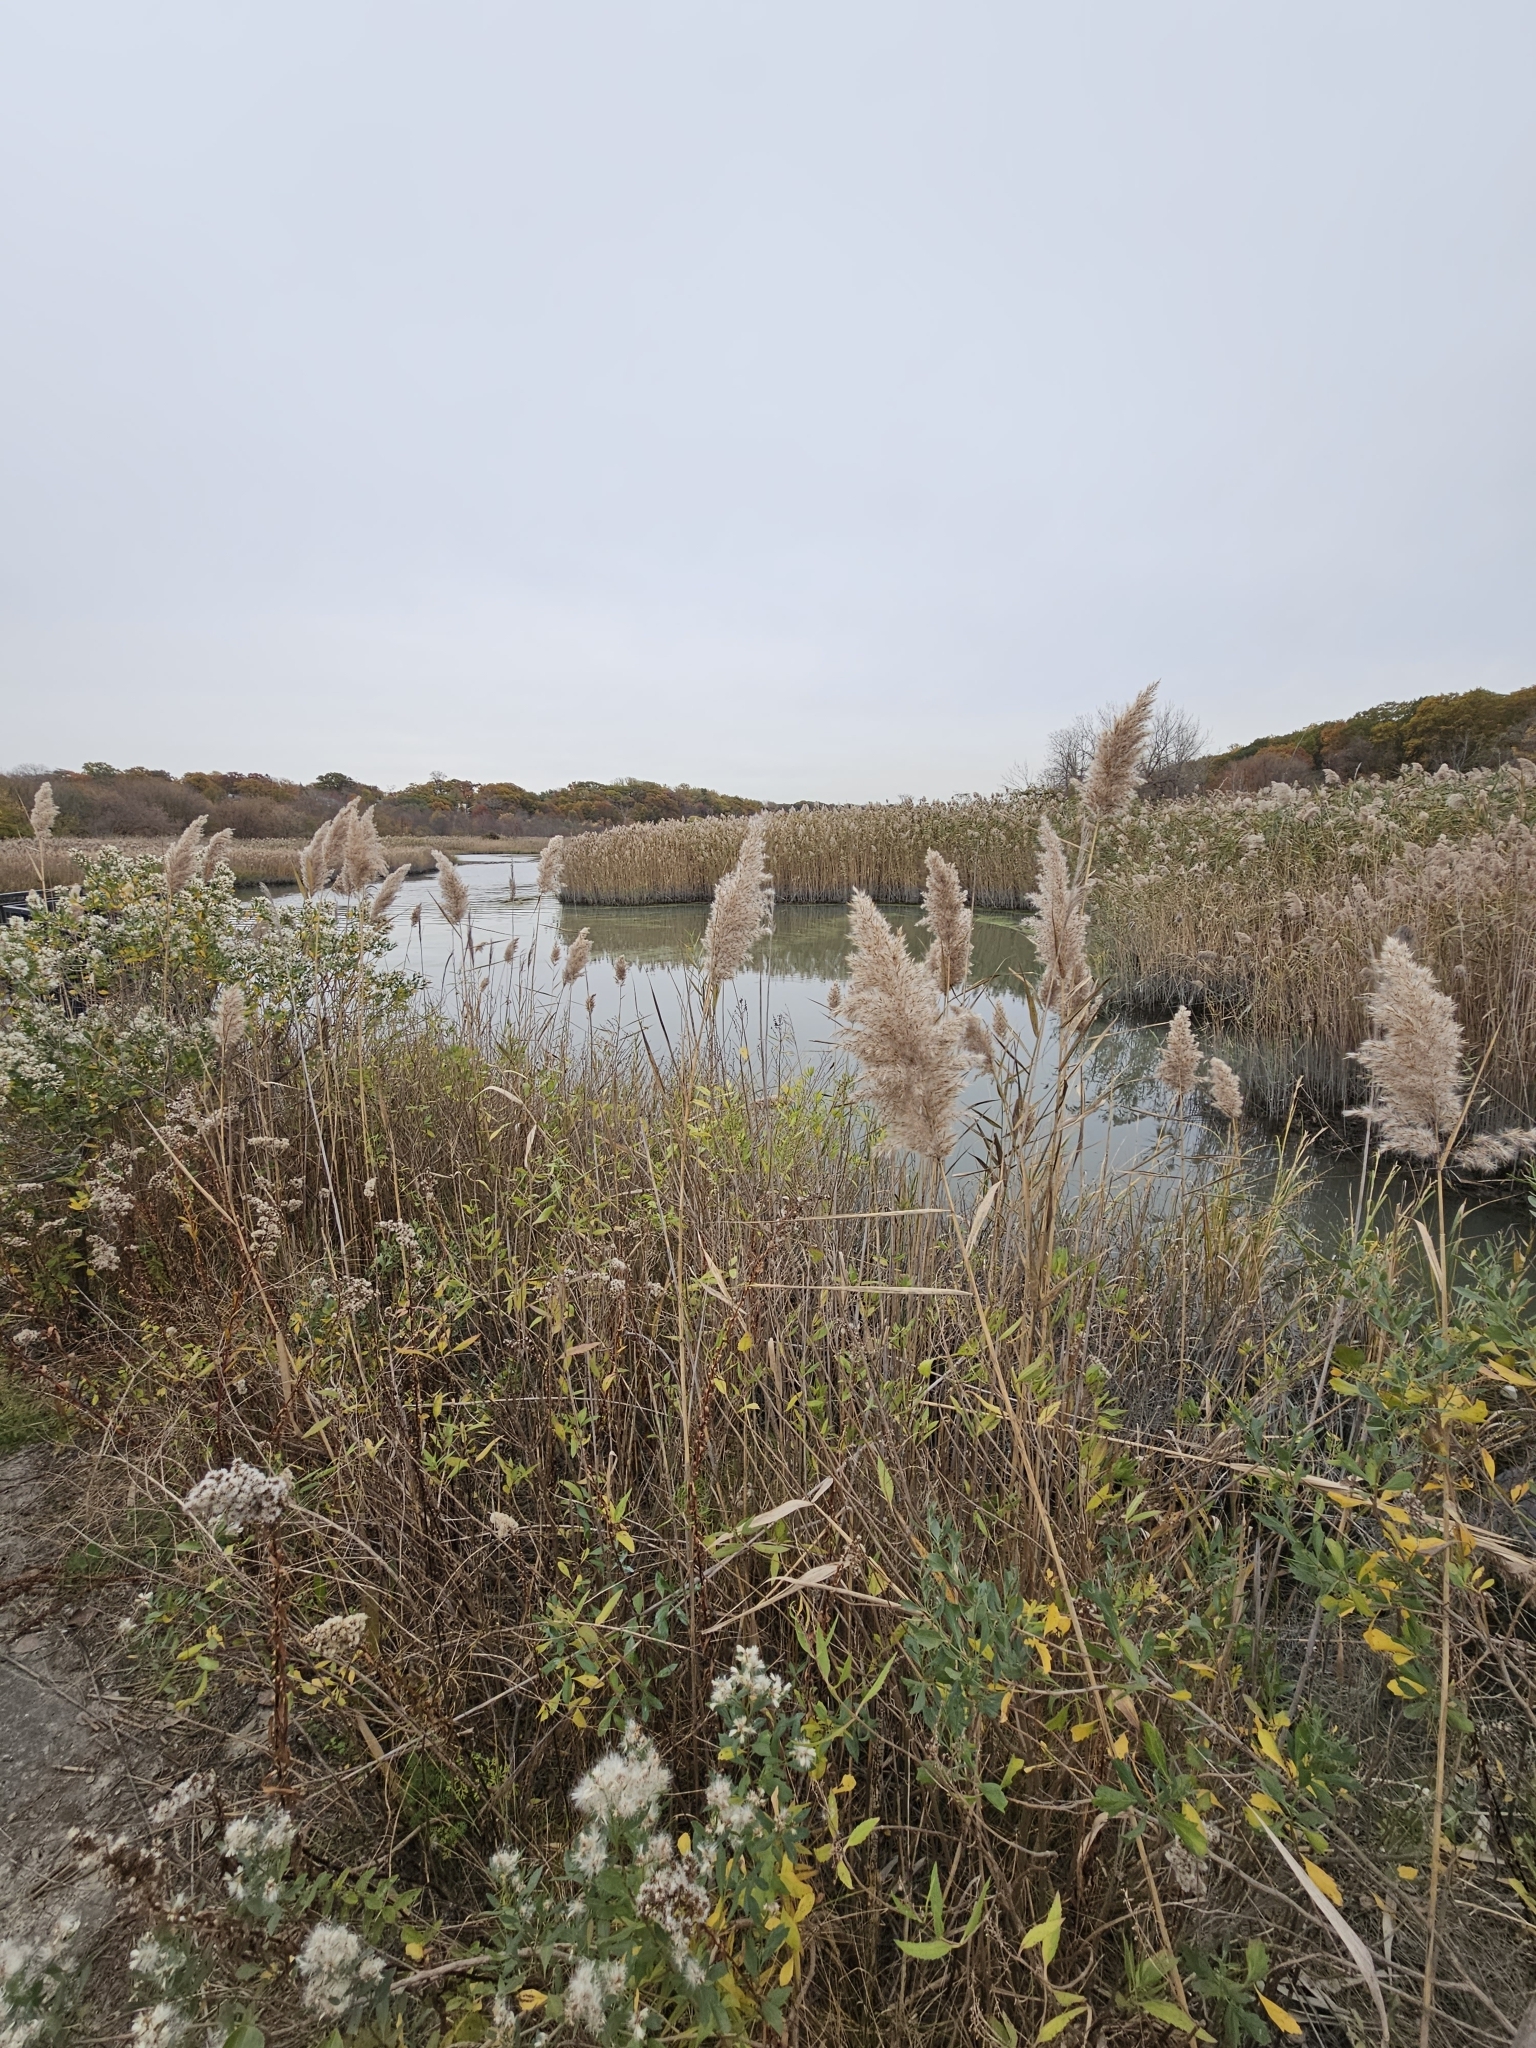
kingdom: Plantae
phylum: Tracheophyta
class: Liliopsida
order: Poales
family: Poaceae
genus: Phragmites
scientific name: Phragmites australis
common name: Common reed
